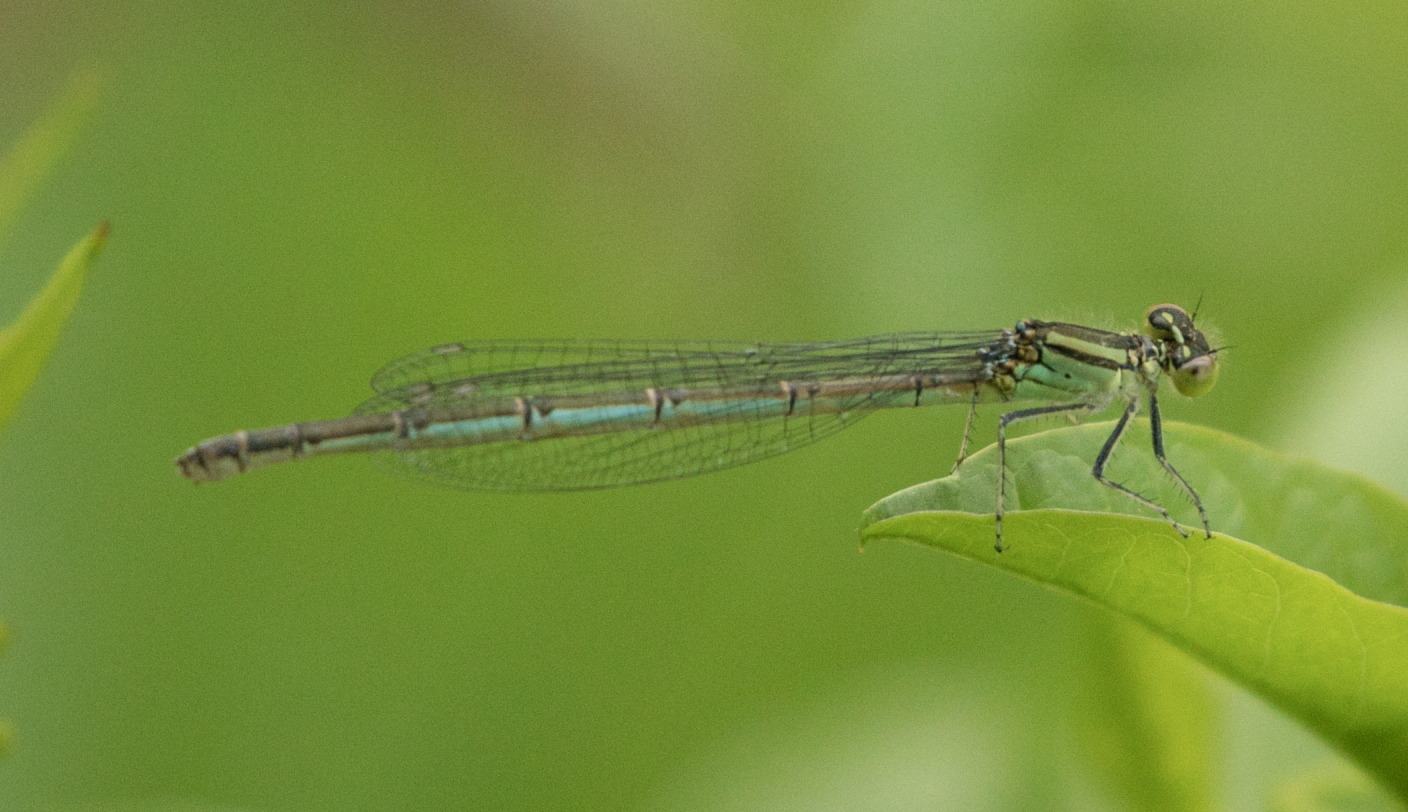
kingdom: Animalia
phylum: Arthropoda
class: Insecta
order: Odonata
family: Coenagrionidae
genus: Erythromma
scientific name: Erythromma lindenii
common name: Blue-eye
